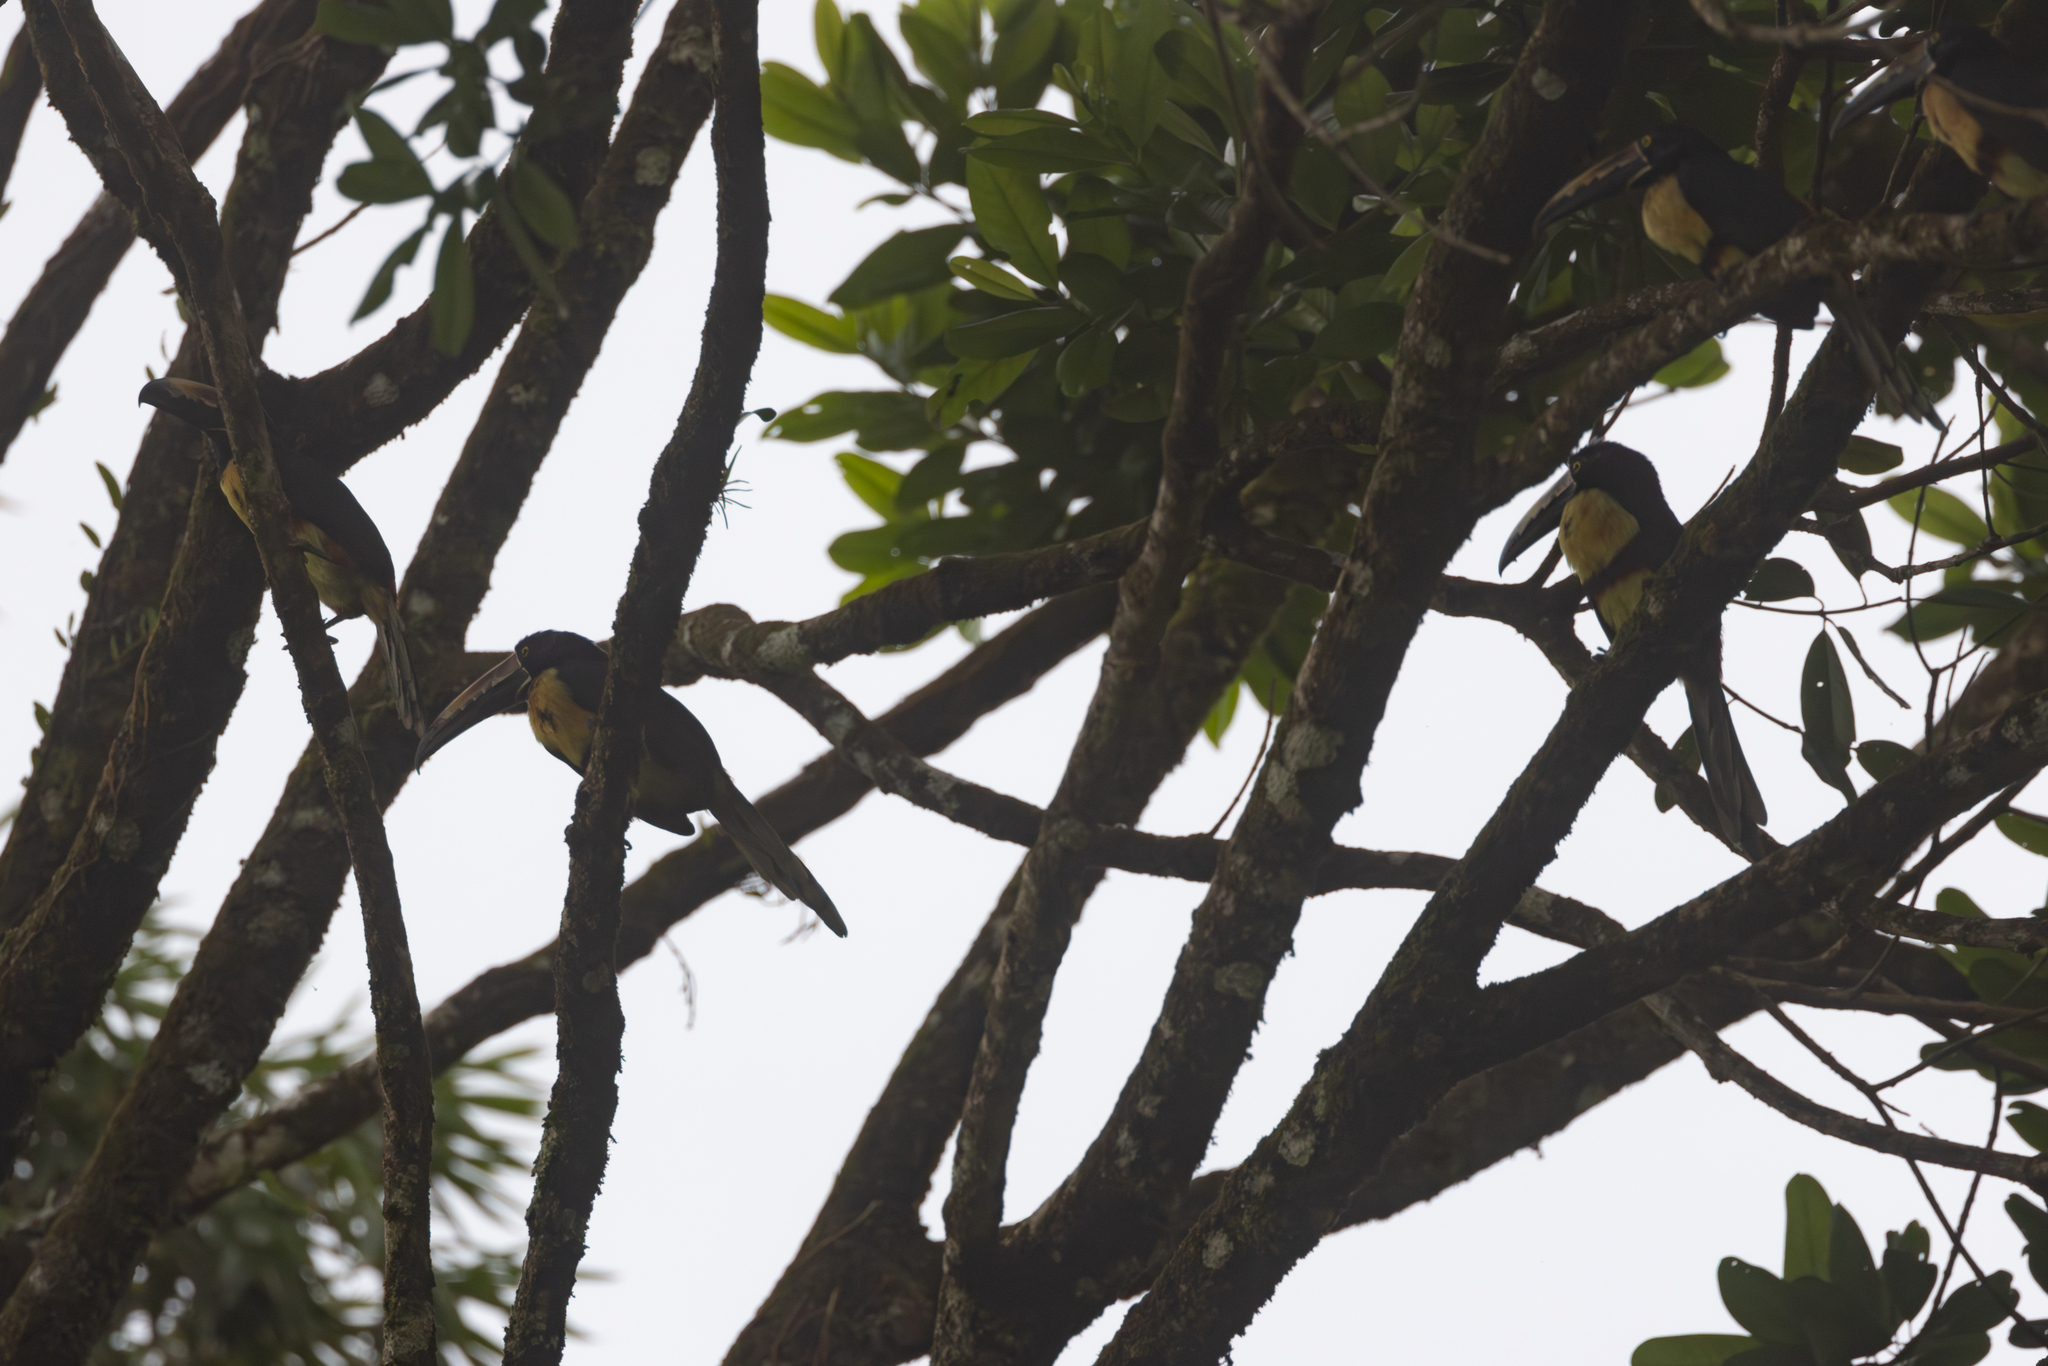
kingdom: Animalia
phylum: Chordata
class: Aves
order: Piciformes
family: Ramphastidae
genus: Pteroglossus
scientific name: Pteroglossus torquatus
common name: Collared aracari
